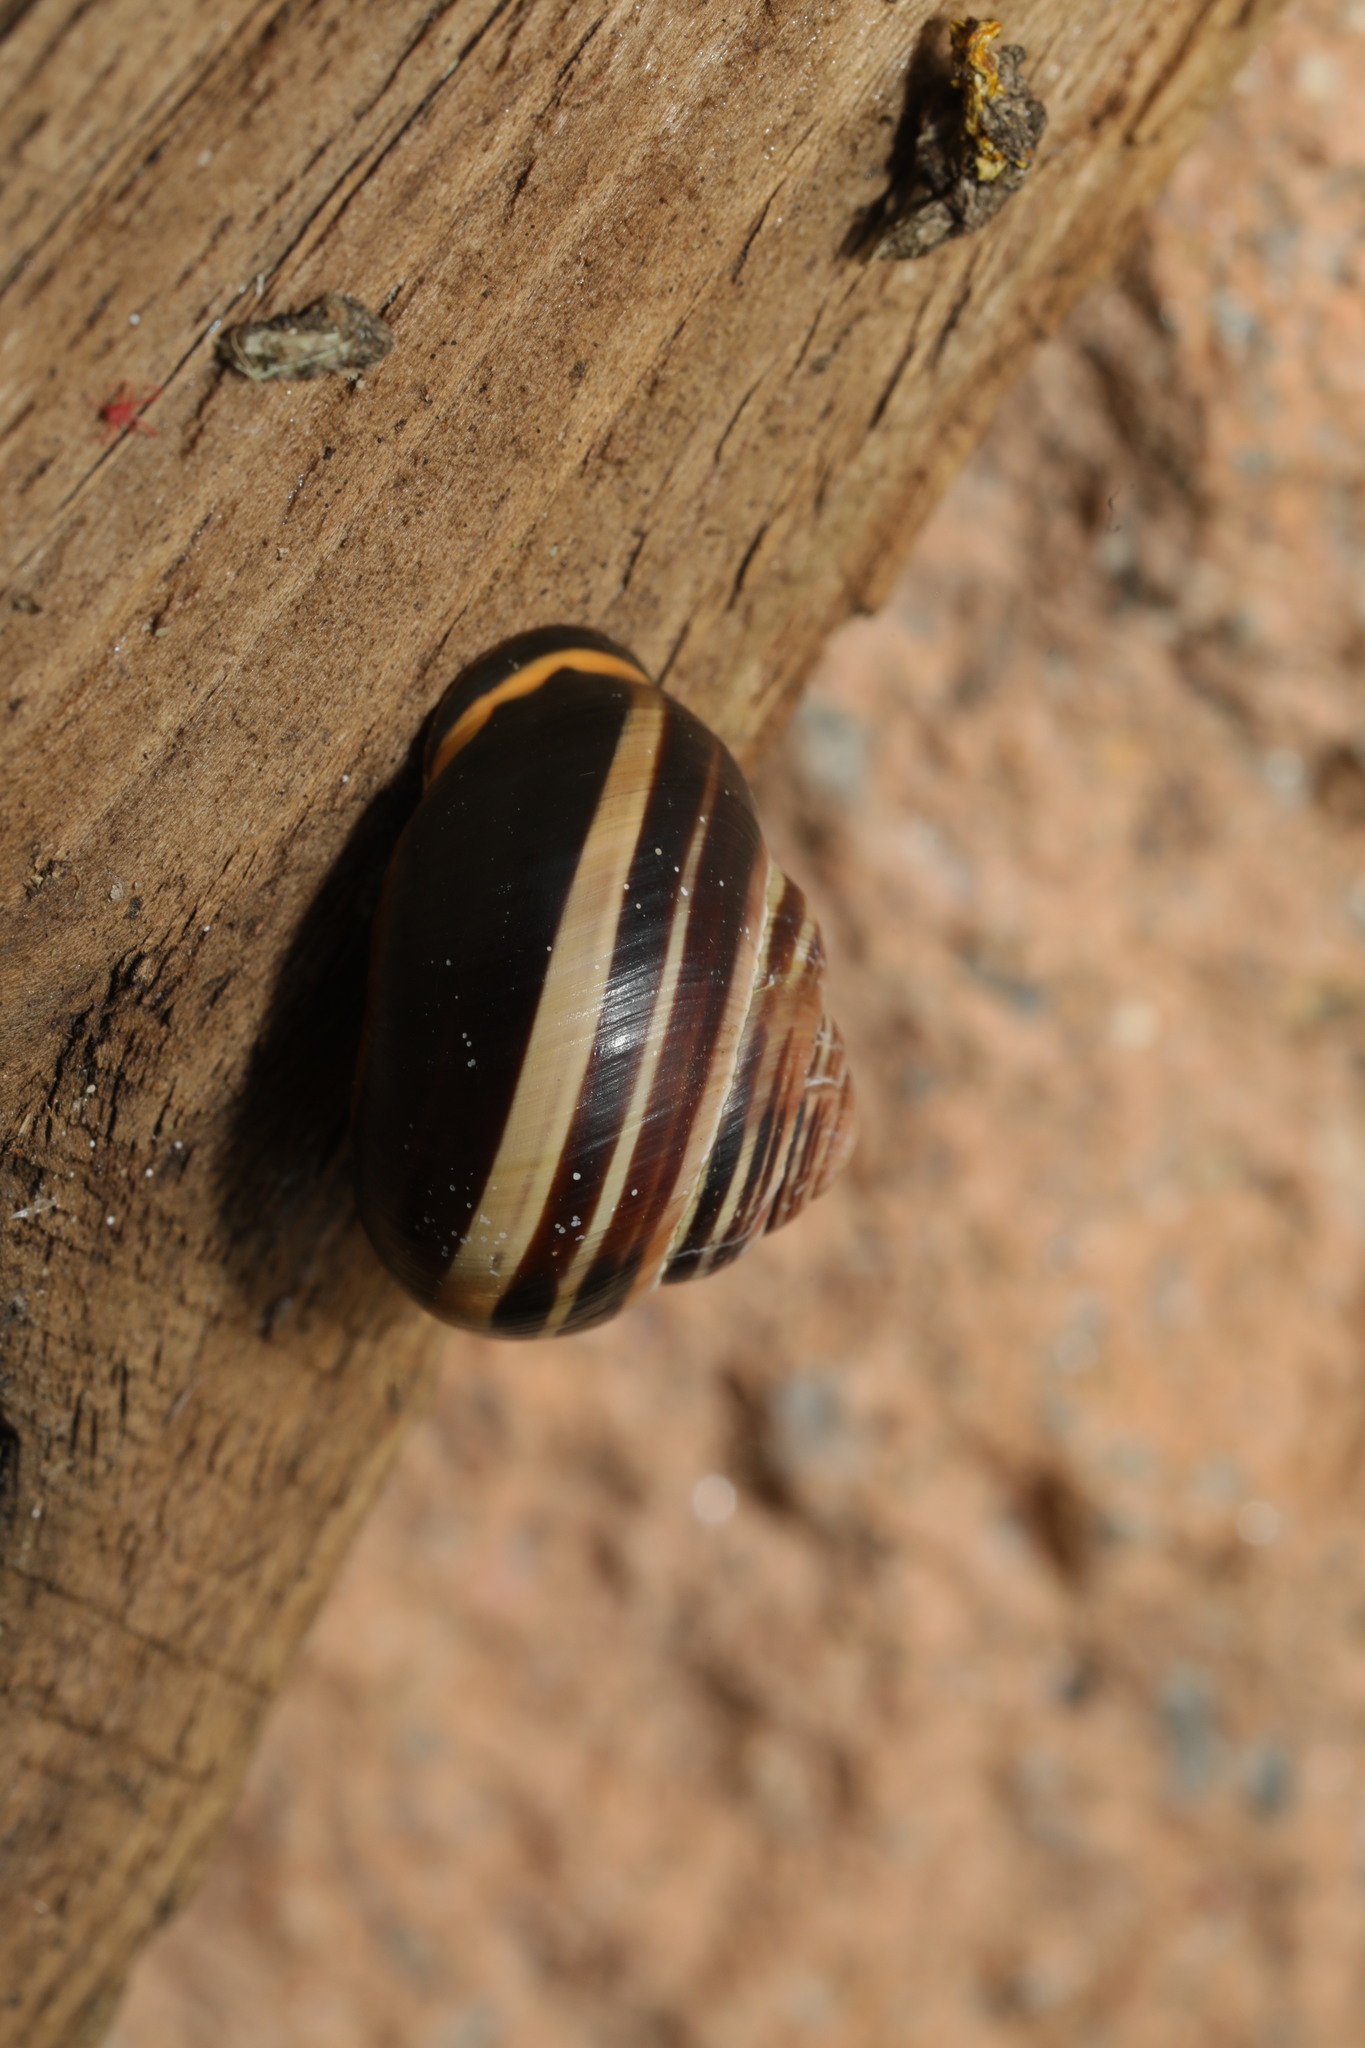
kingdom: Animalia
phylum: Mollusca
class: Gastropoda
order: Stylommatophora
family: Helicidae
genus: Cepaea
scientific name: Cepaea nemoralis
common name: Grovesnail
